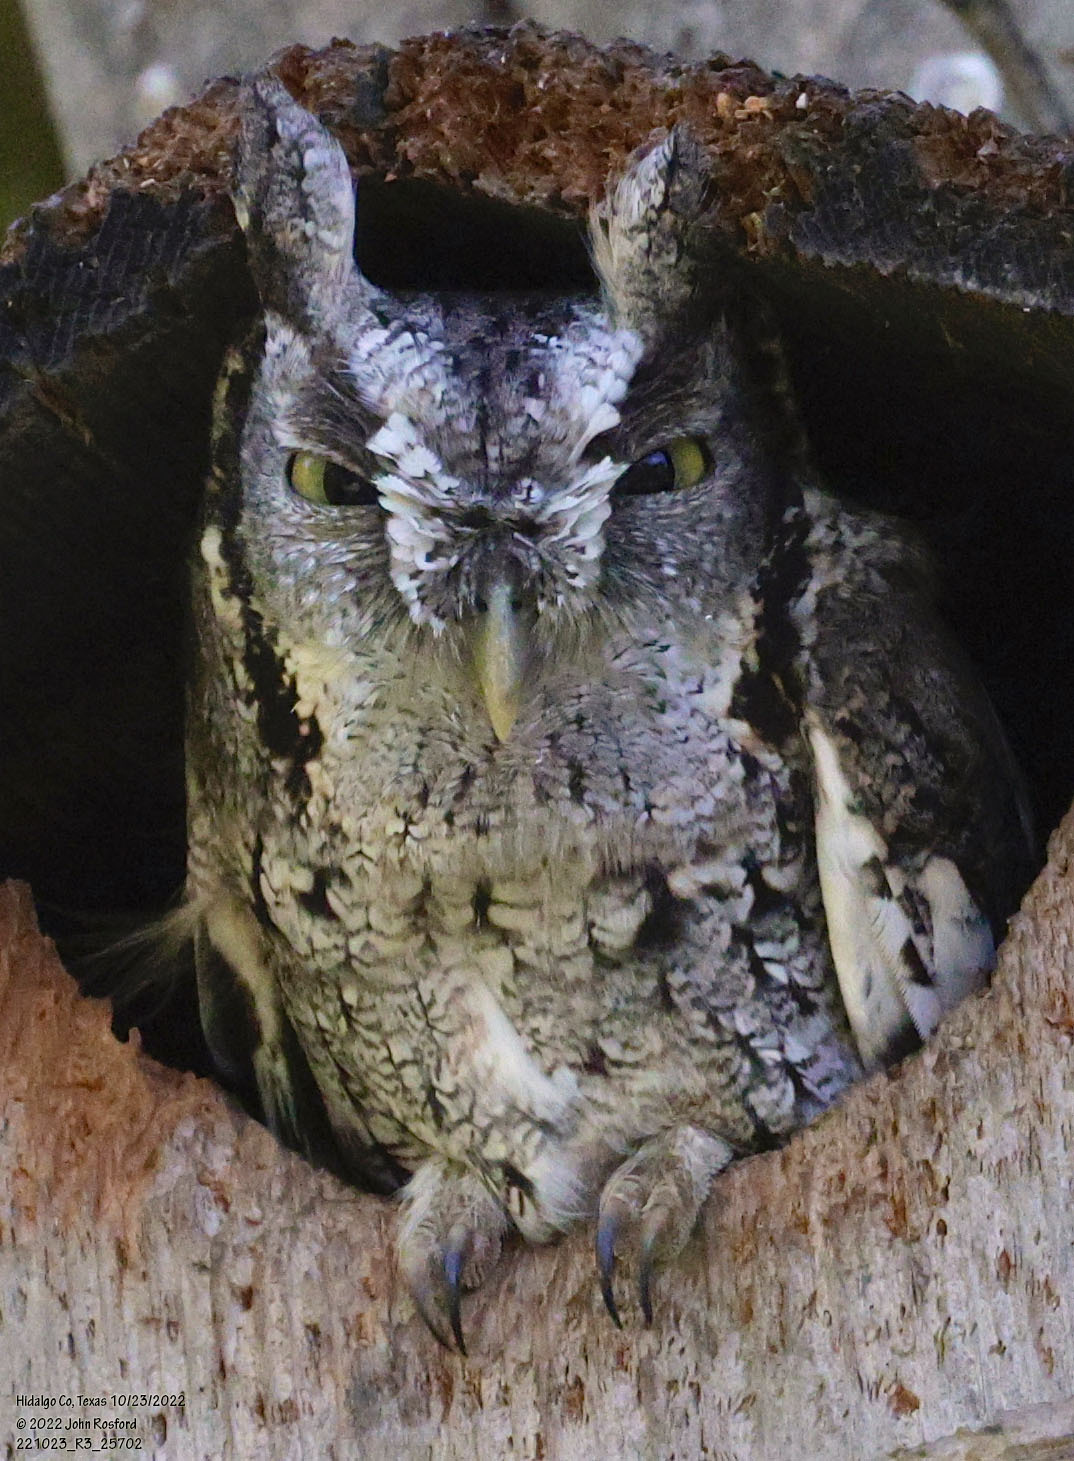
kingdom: Animalia
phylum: Chordata
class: Aves
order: Strigiformes
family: Strigidae
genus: Megascops
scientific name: Megascops asio
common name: Eastern screech-owl
